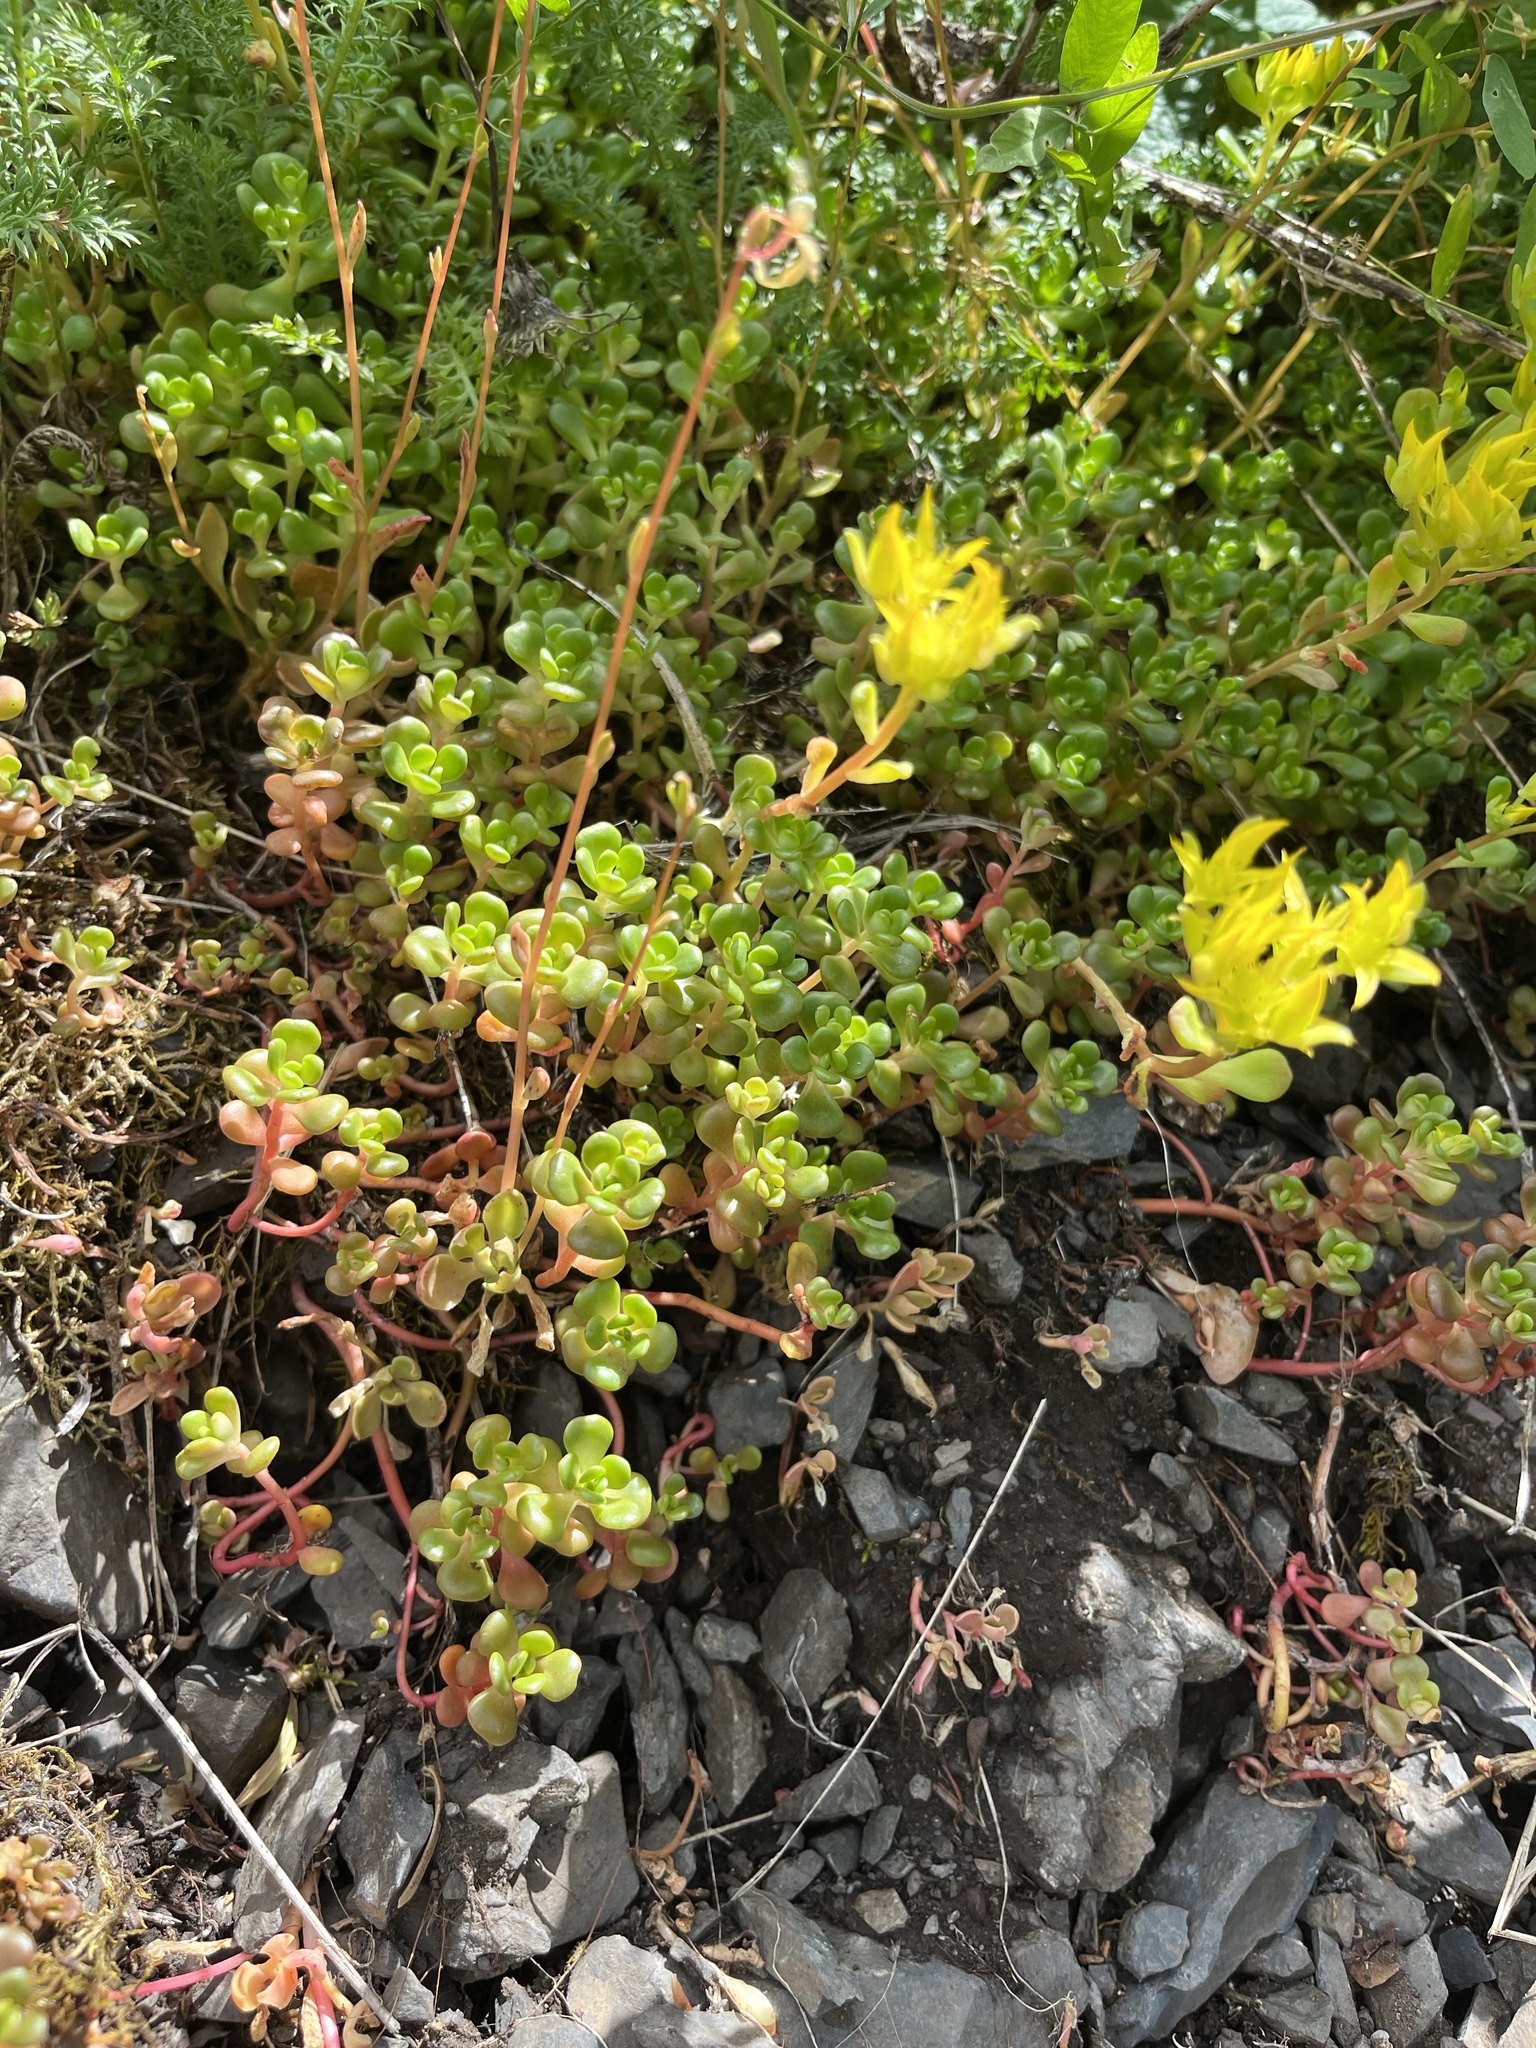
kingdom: Plantae
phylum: Tracheophyta
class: Magnoliopsida
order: Saxifragales
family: Crassulaceae
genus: Sedum
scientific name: Sedum oreganum
